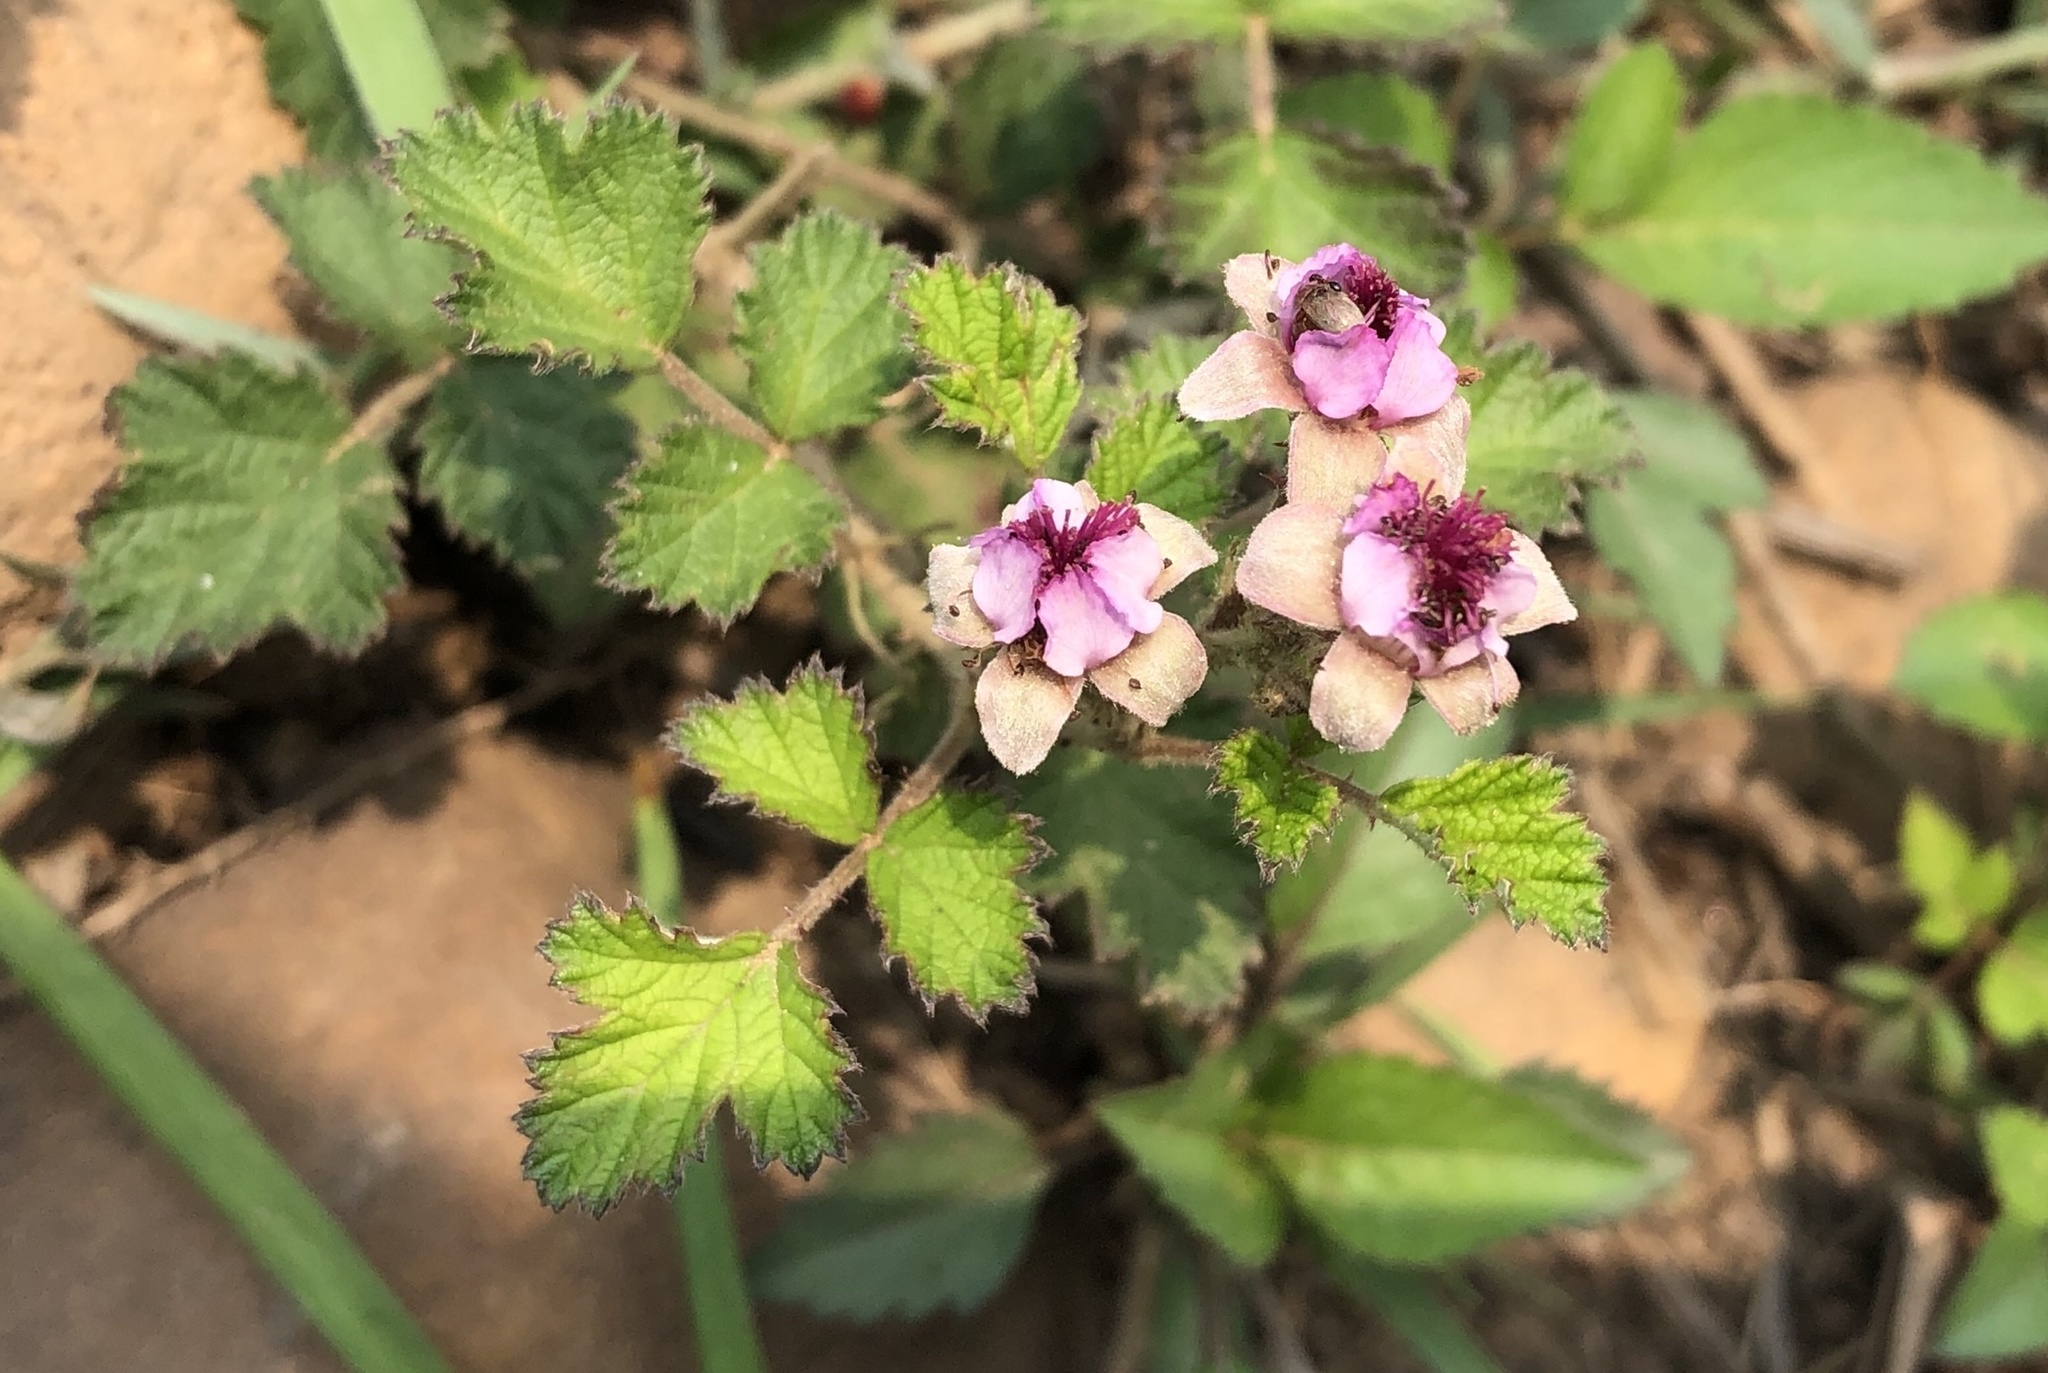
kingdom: Plantae
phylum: Tracheophyta
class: Magnoliopsida
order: Rosales
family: Rosaceae
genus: Rubus
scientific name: Rubus parvifolius
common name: Threeleaf blackberry
